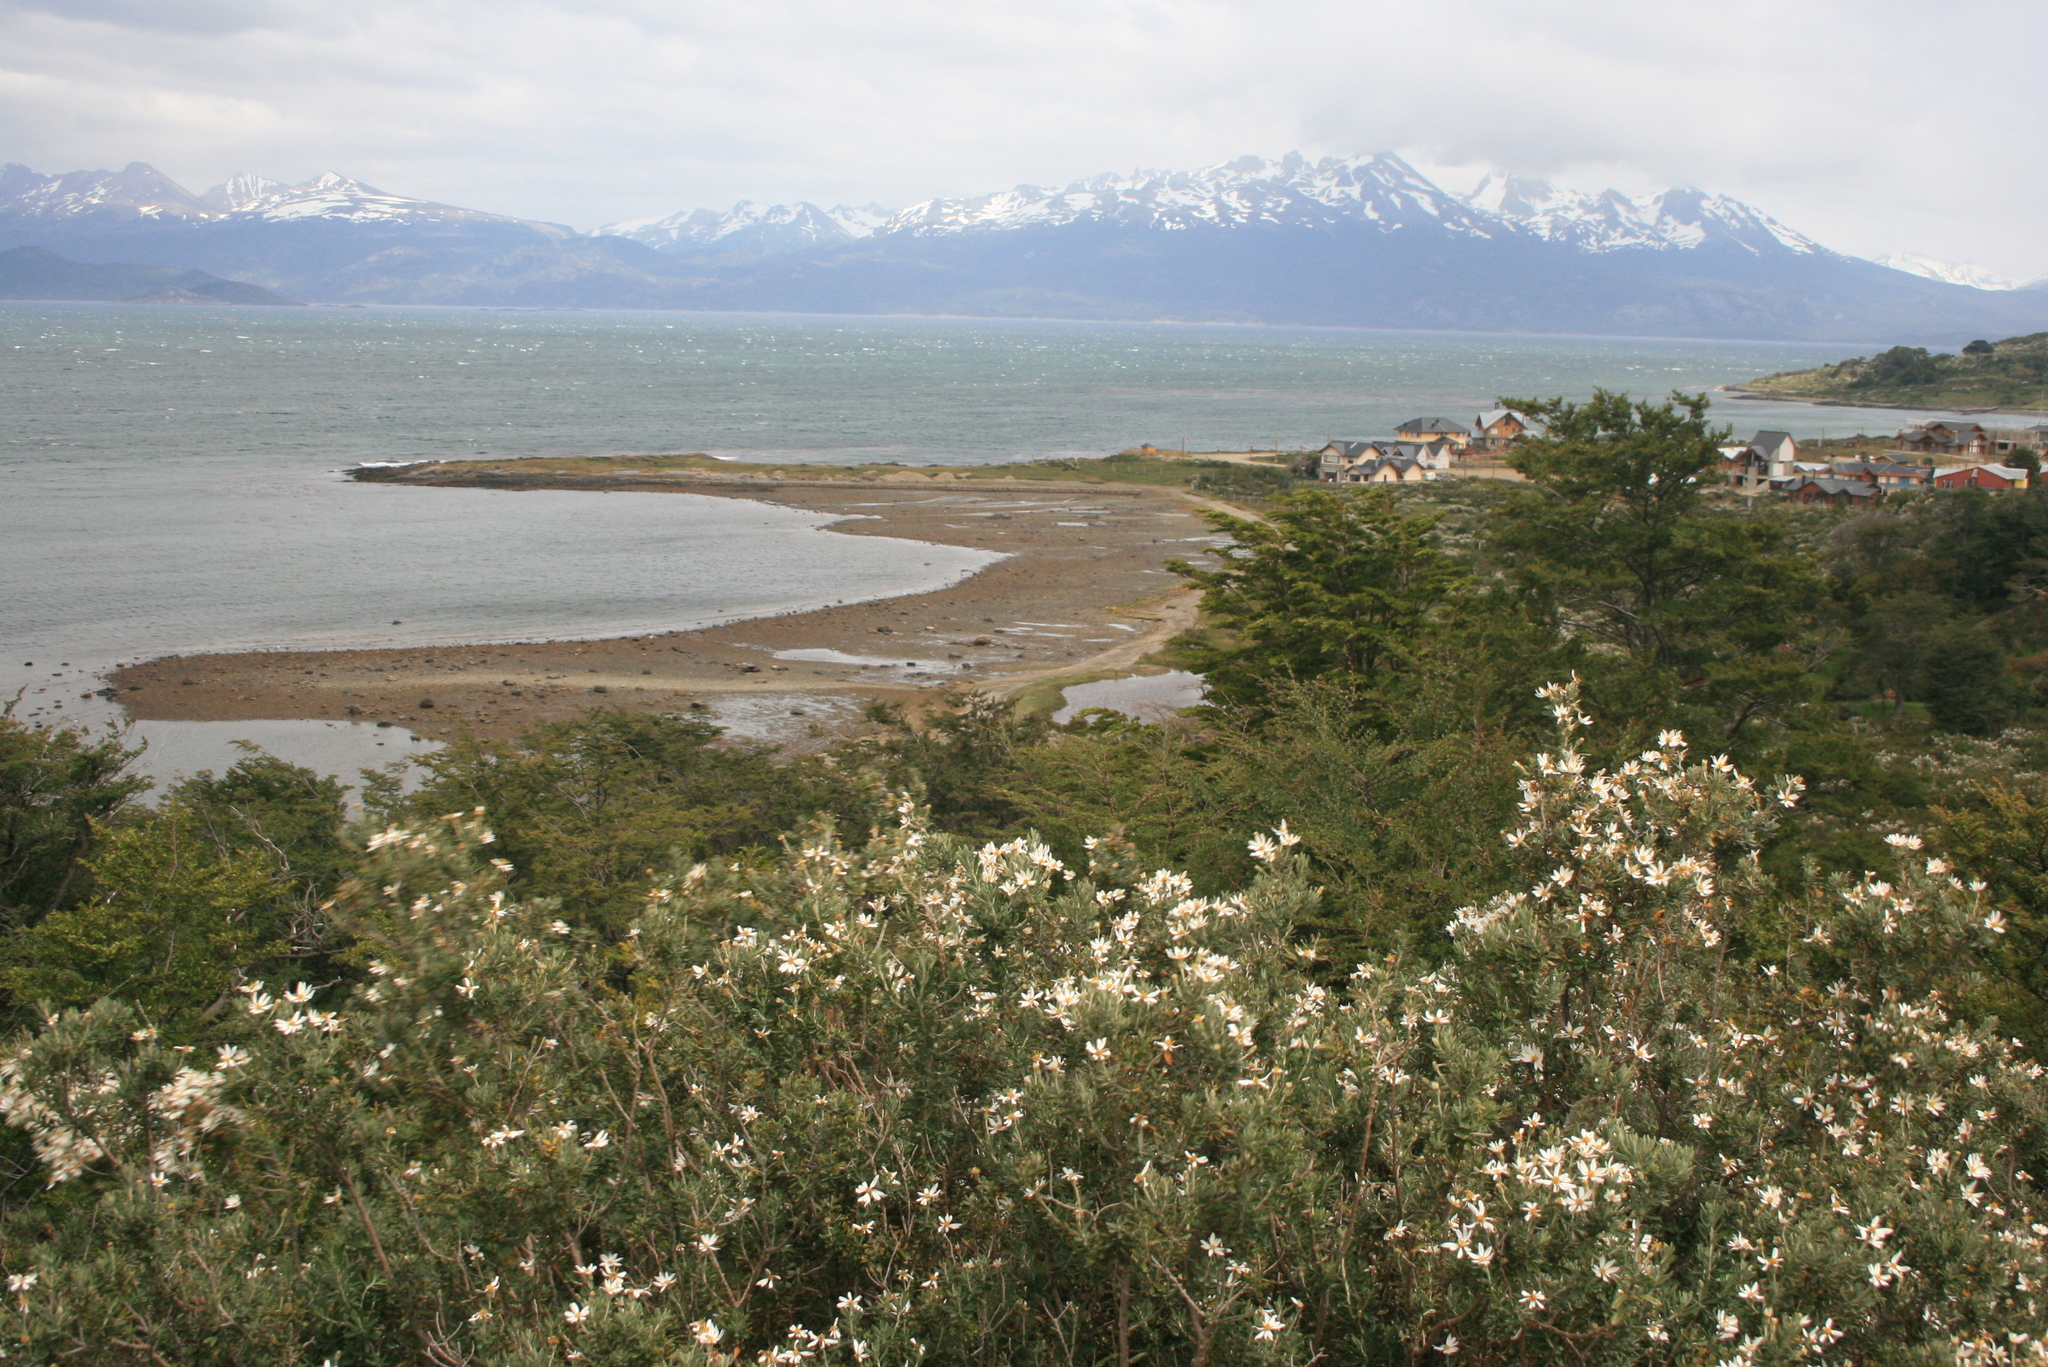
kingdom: Plantae
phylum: Tracheophyta
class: Magnoliopsida
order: Asterales
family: Asteraceae
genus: Chiliotrichum
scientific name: Chiliotrichum diffusum
